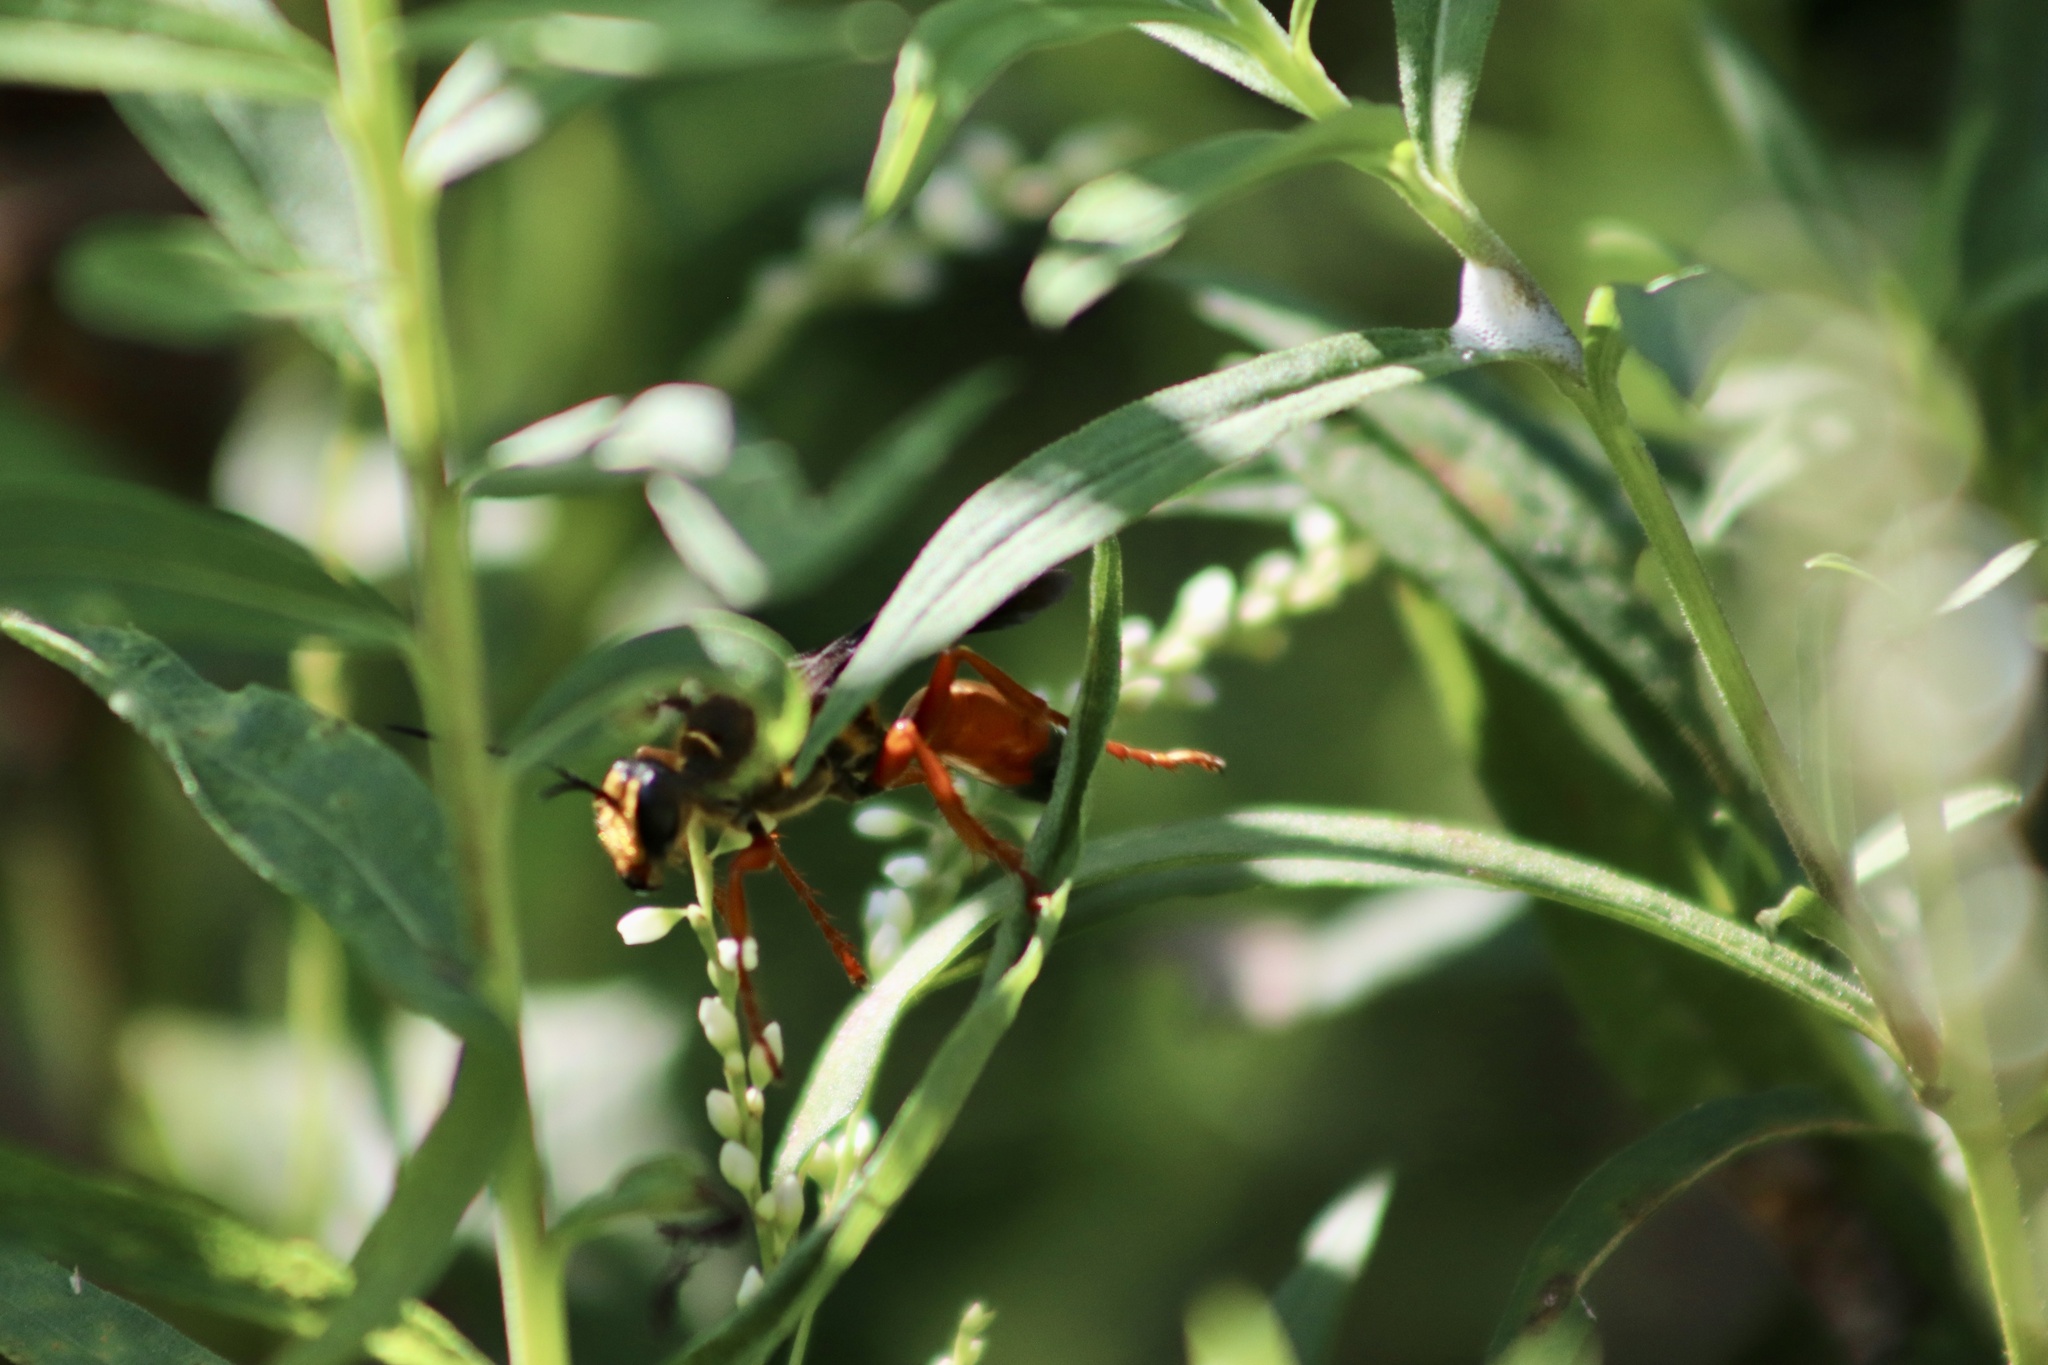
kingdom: Animalia
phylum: Arthropoda
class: Insecta
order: Hymenoptera
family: Sphecidae
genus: Sphex
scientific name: Sphex ichneumoneus
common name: Great golden digger wasp
